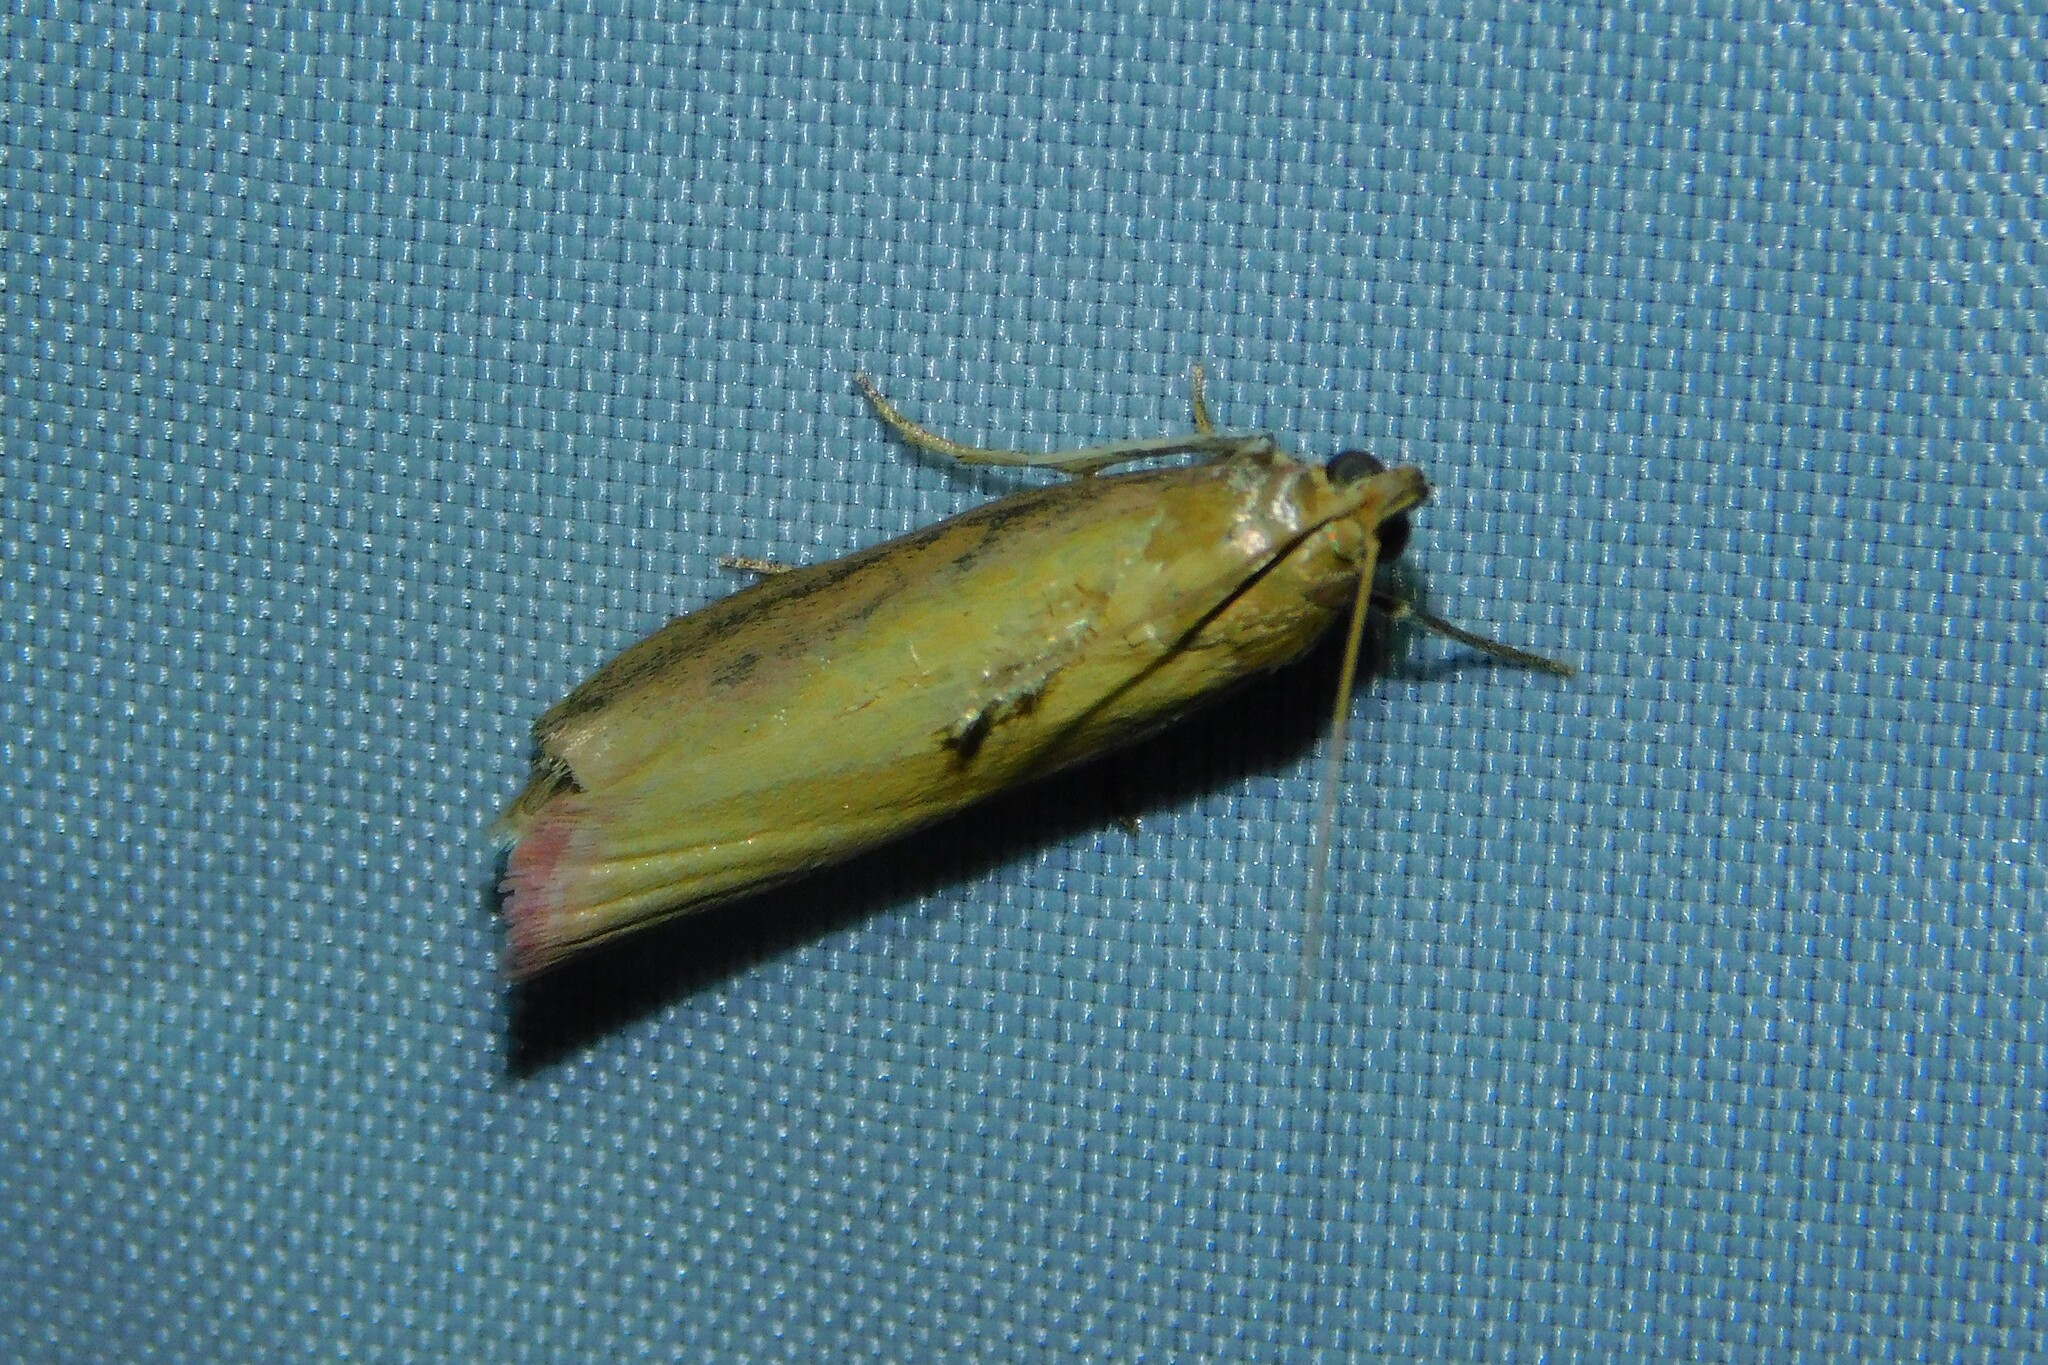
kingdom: Animalia
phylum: Arthropoda
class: Insecta
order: Lepidoptera
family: Pyralidae
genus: Oncocera
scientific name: Oncocera semirubella
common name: Rosy-striped knot-horn
